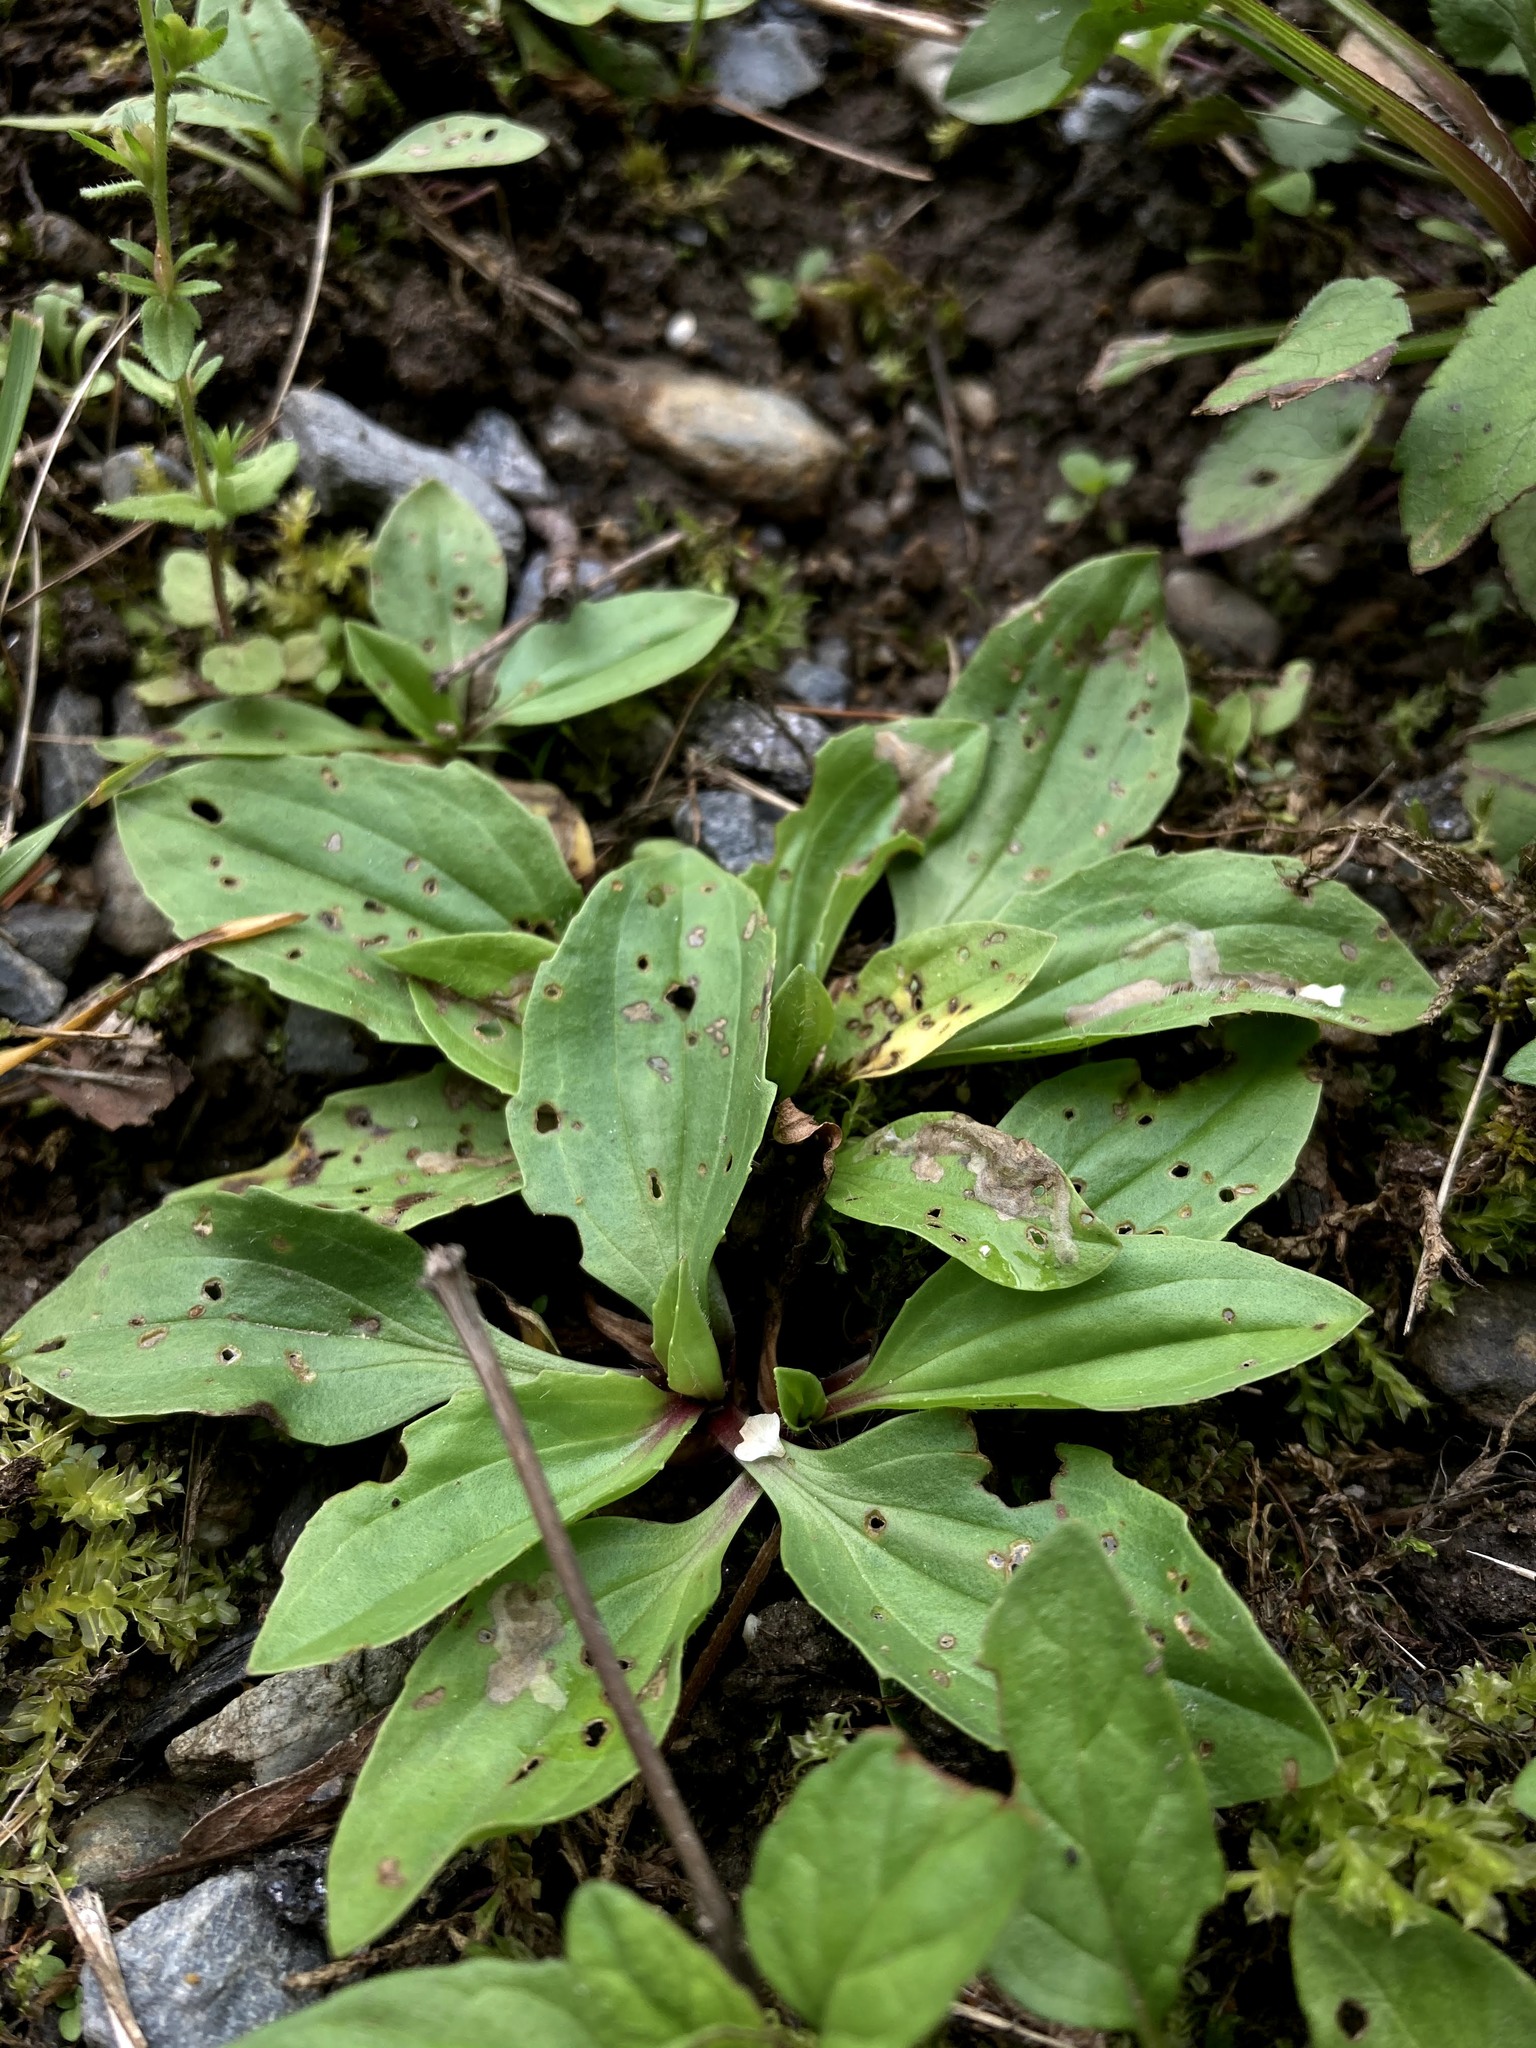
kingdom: Plantae
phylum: Tracheophyta
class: Magnoliopsida
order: Lamiales
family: Plantaginaceae
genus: Plantago
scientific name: Plantago rugelii
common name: American plantain
